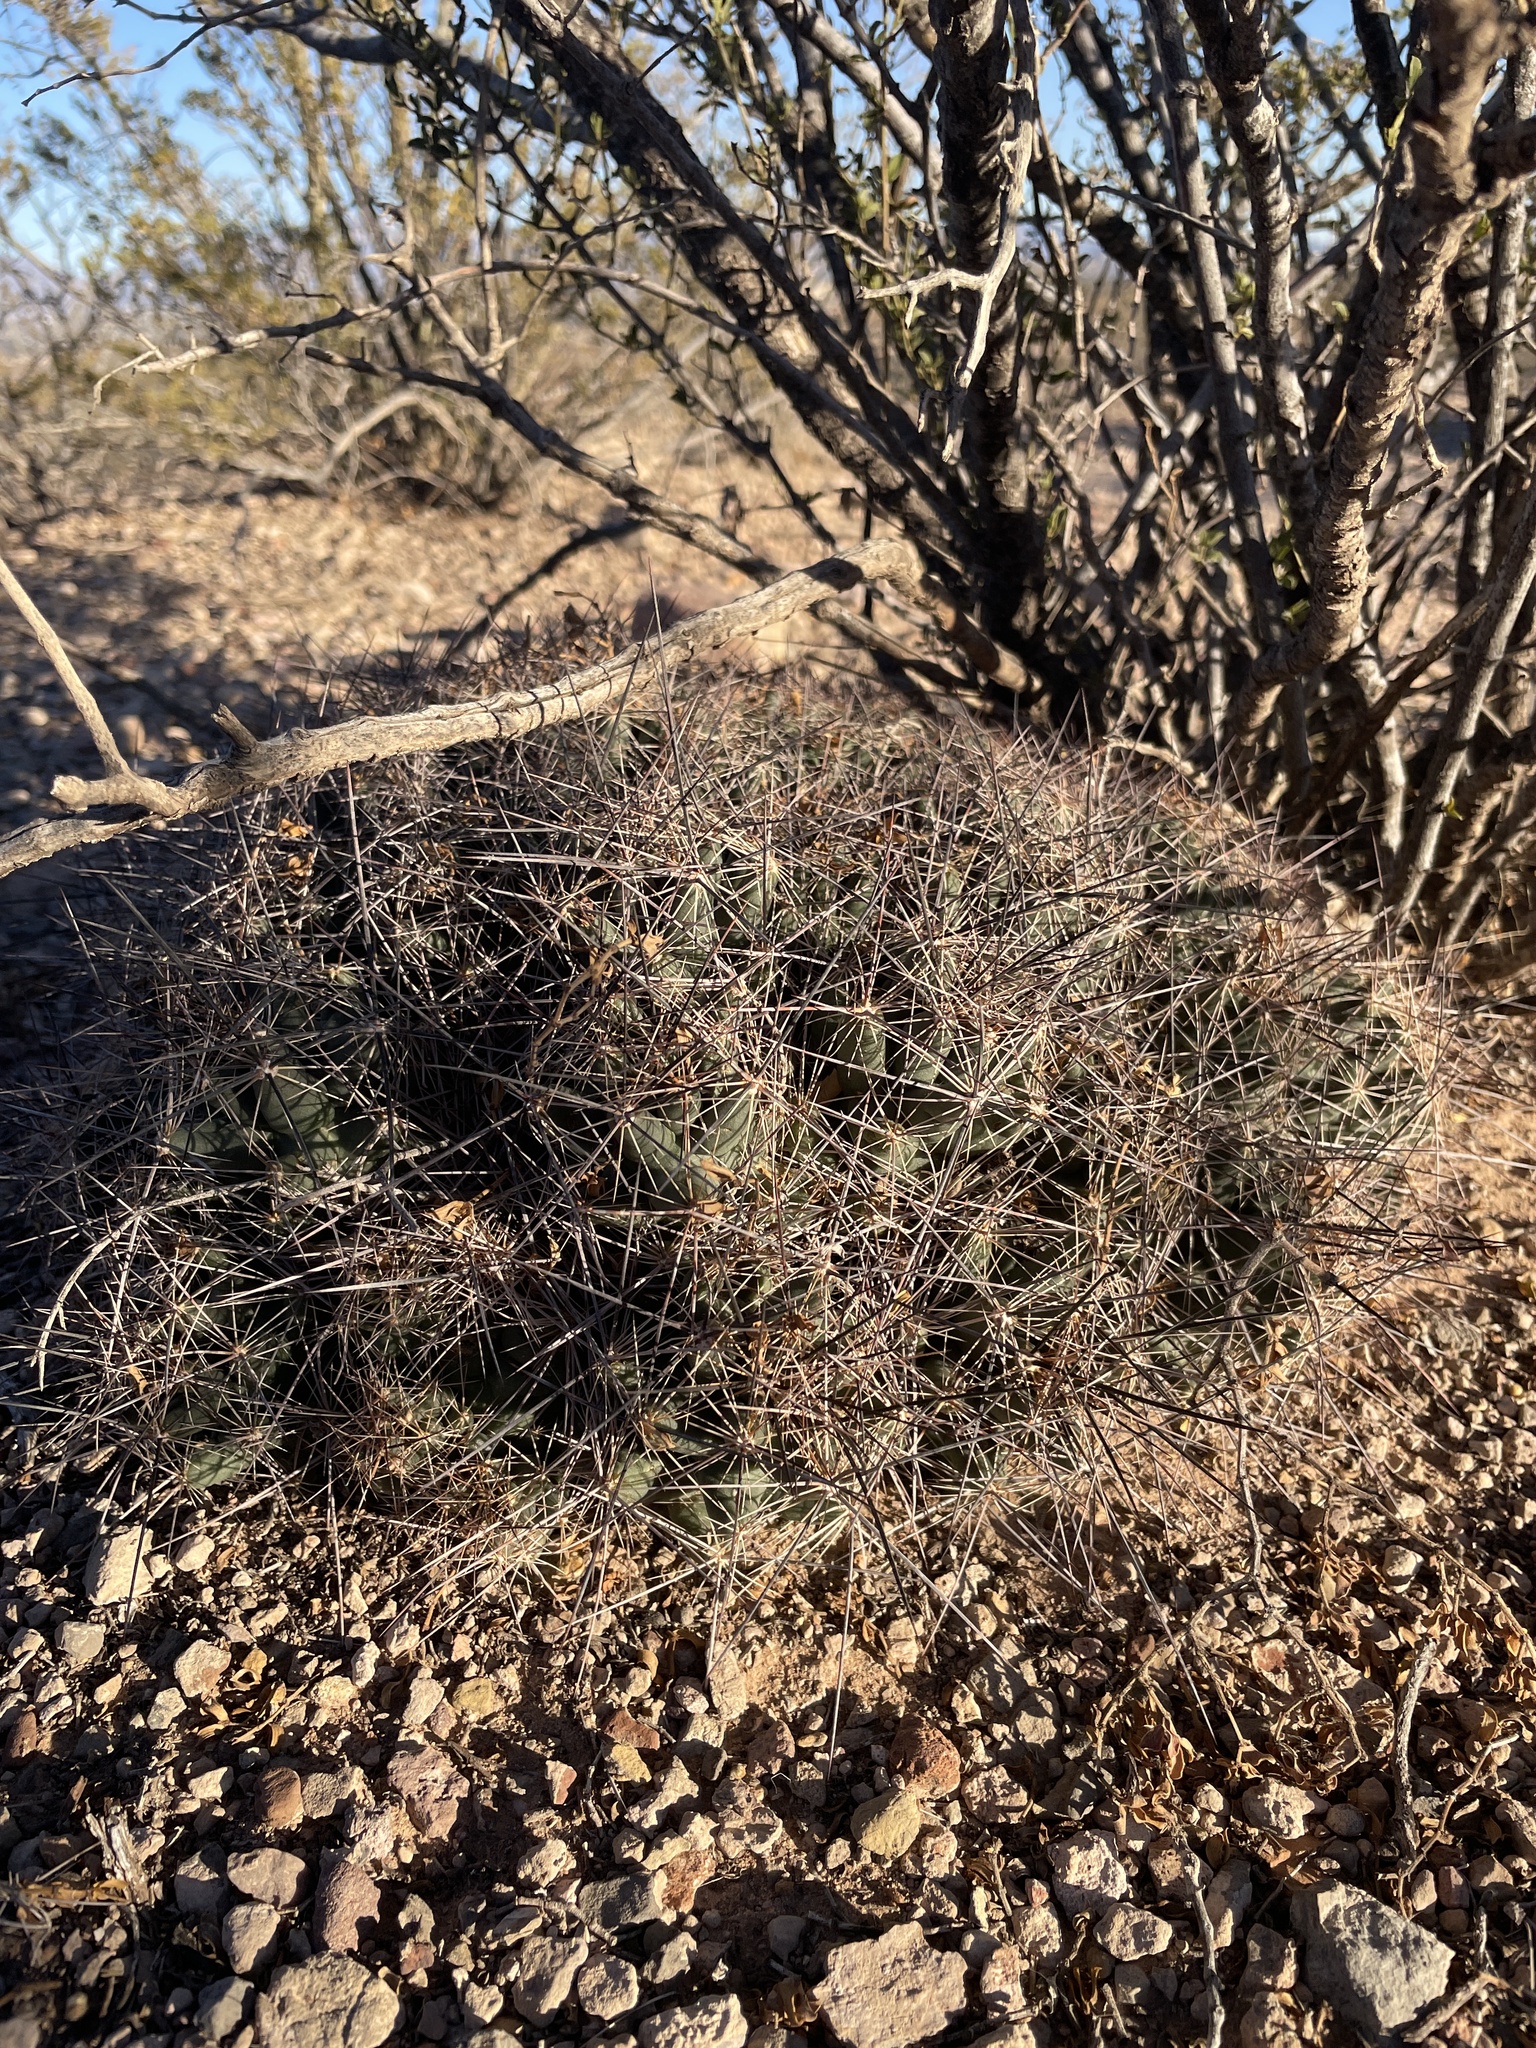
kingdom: Plantae
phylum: Tracheophyta
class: Magnoliopsida
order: Caryophyllales
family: Cactaceae
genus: Coryphantha
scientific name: Coryphantha macromeris
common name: Nipple beehive cactus
